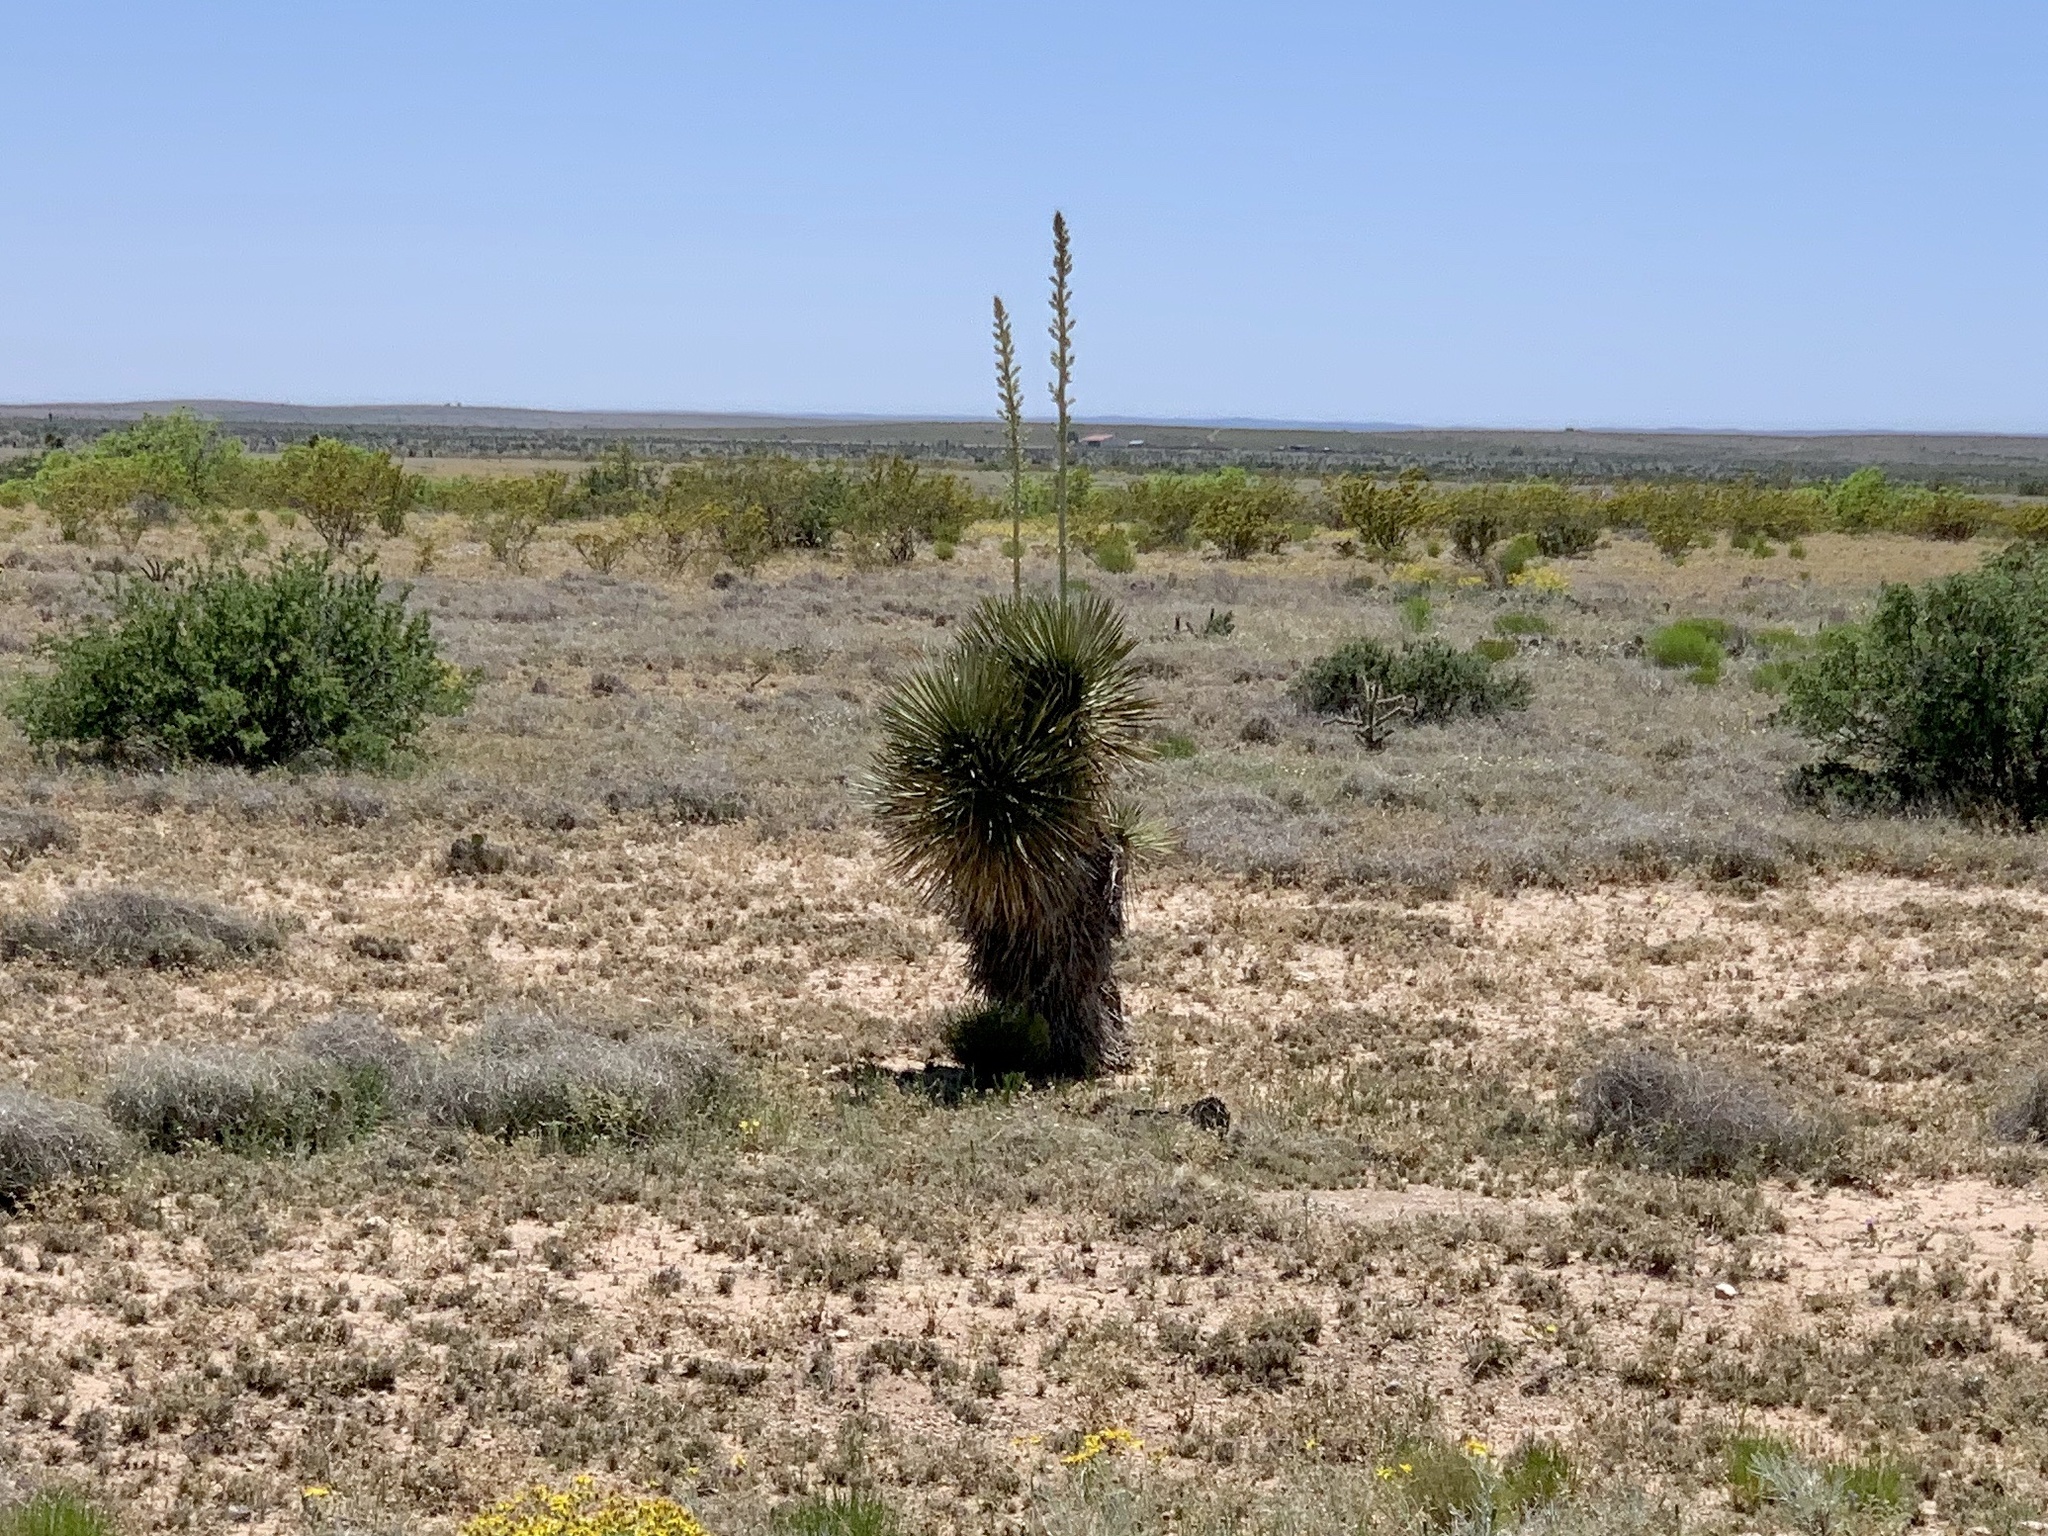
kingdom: Plantae
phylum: Tracheophyta
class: Liliopsida
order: Asparagales
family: Asparagaceae
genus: Yucca
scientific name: Yucca elata
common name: Palmella
